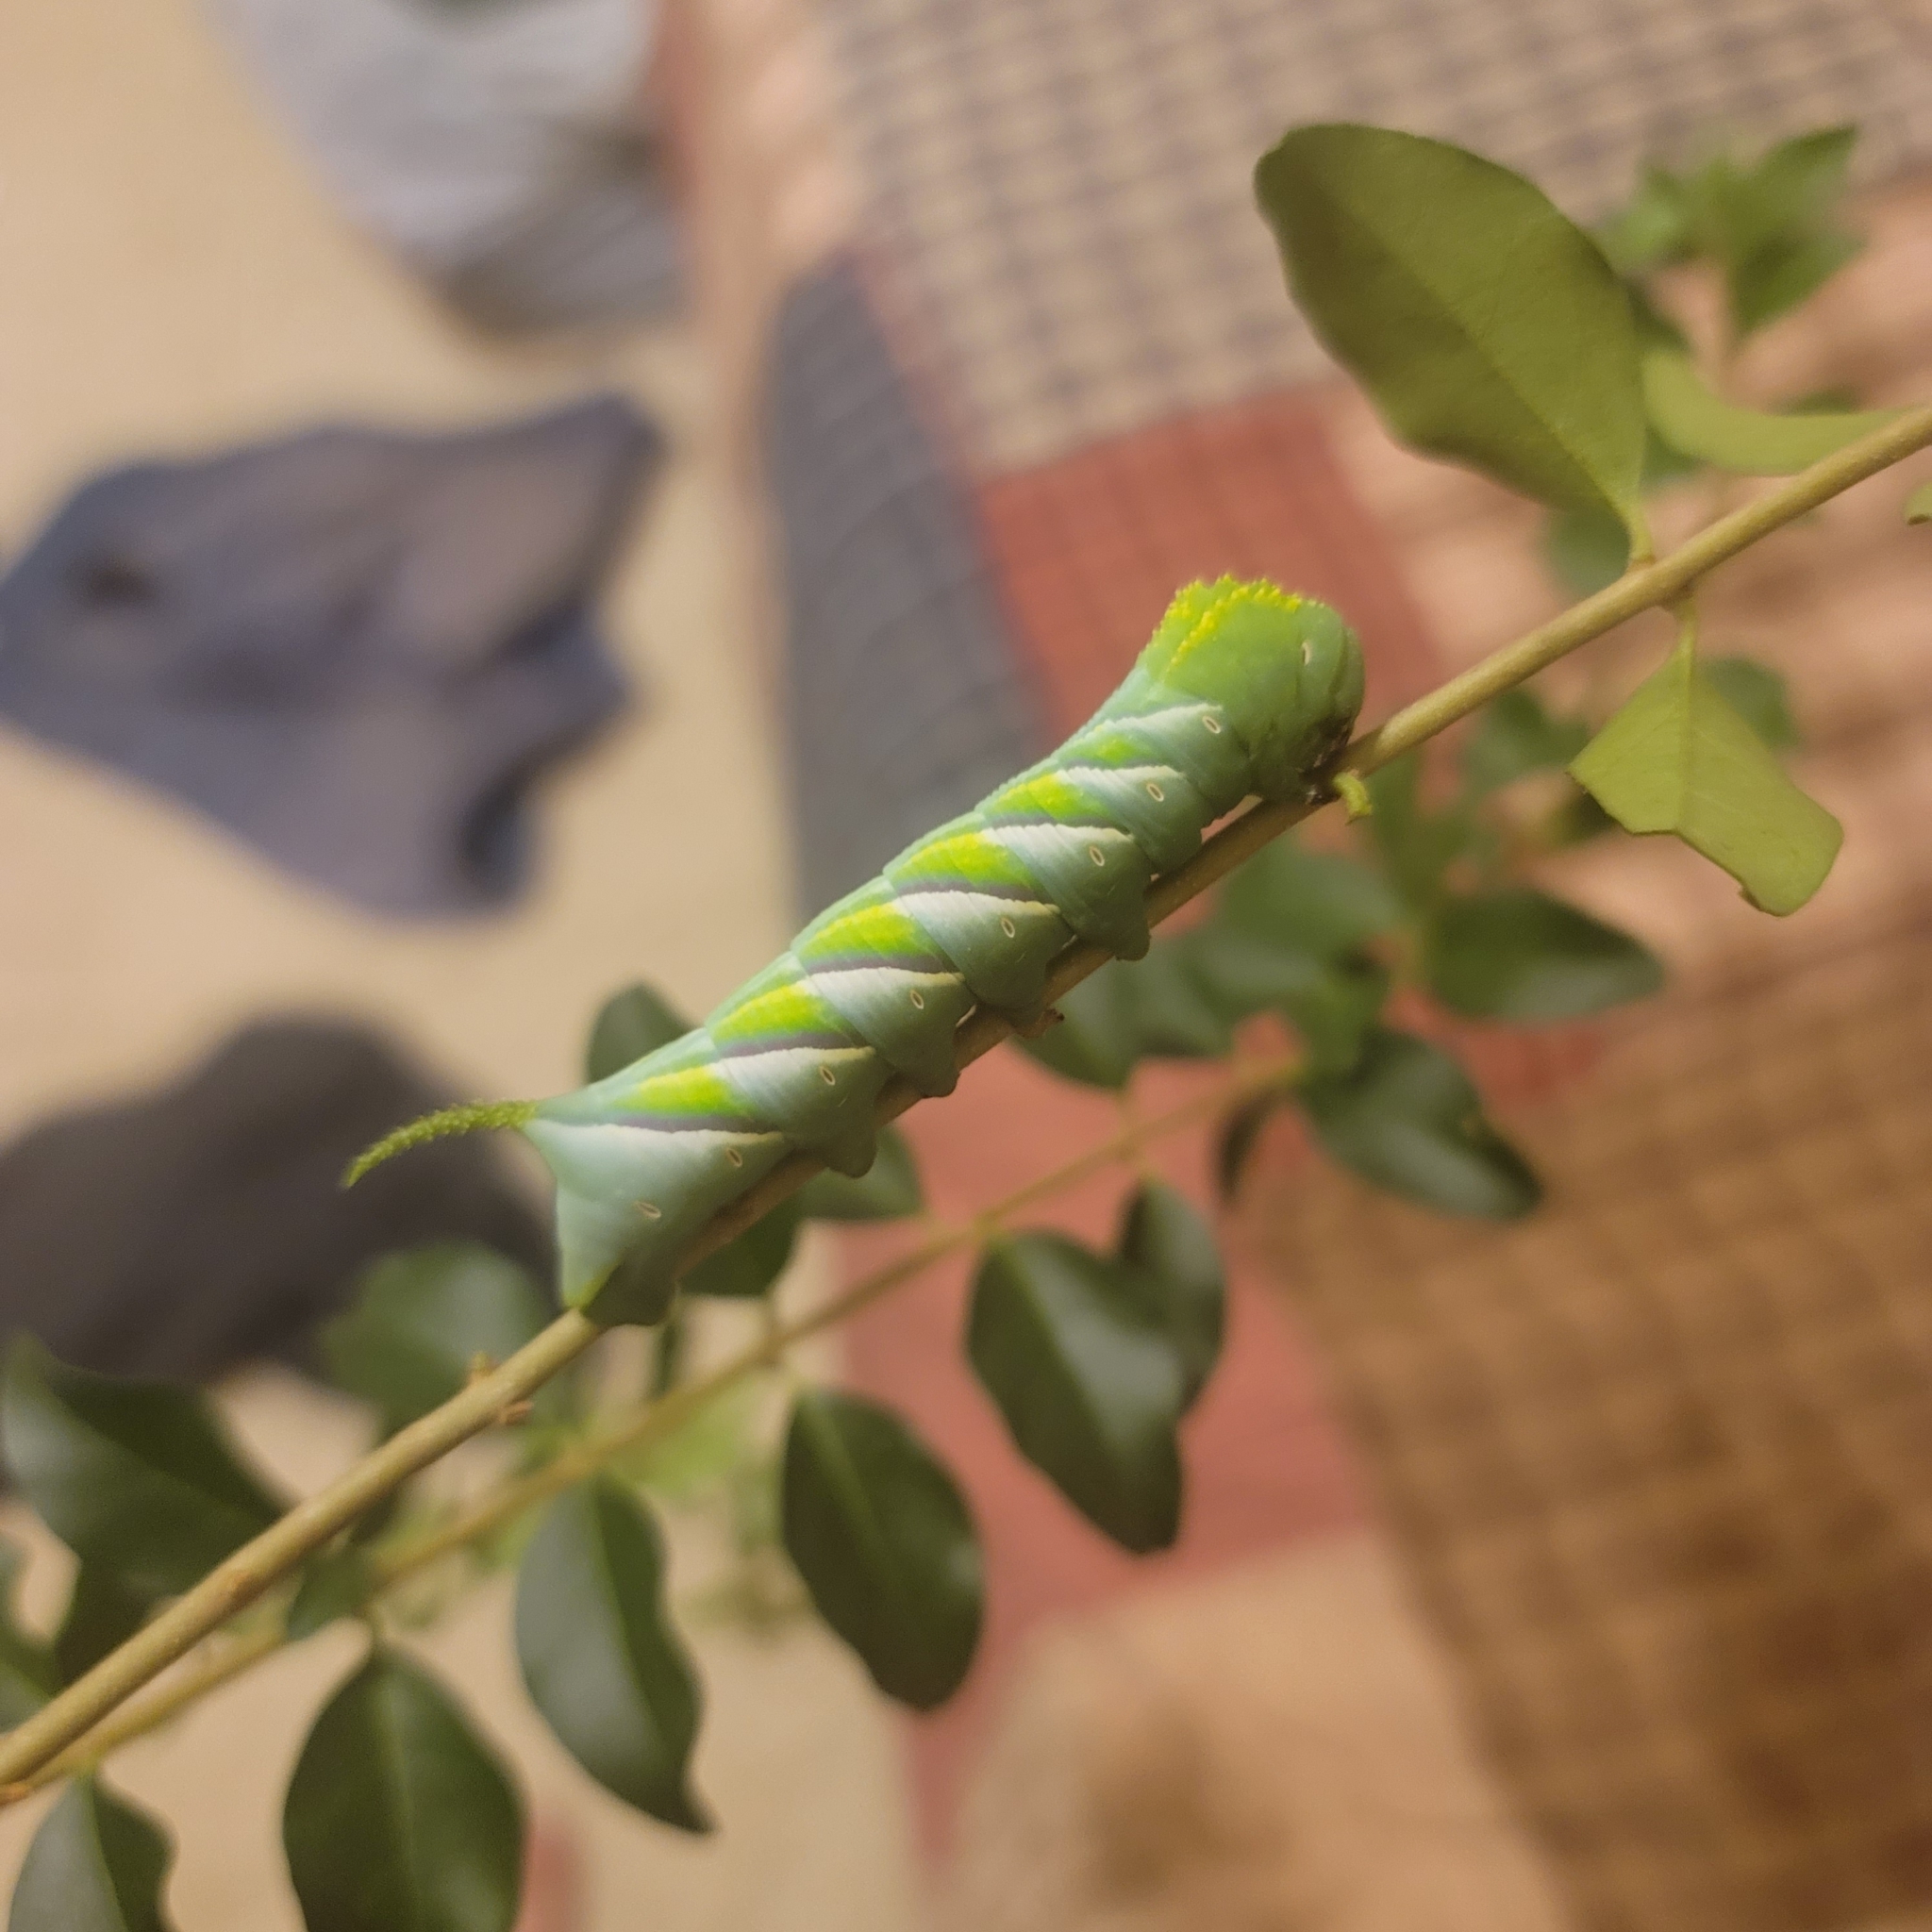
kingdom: Animalia
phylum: Arthropoda
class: Insecta
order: Lepidoptera
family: Sphingidae
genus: Manduca
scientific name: Manduca rustica
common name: Rustic sphinx
